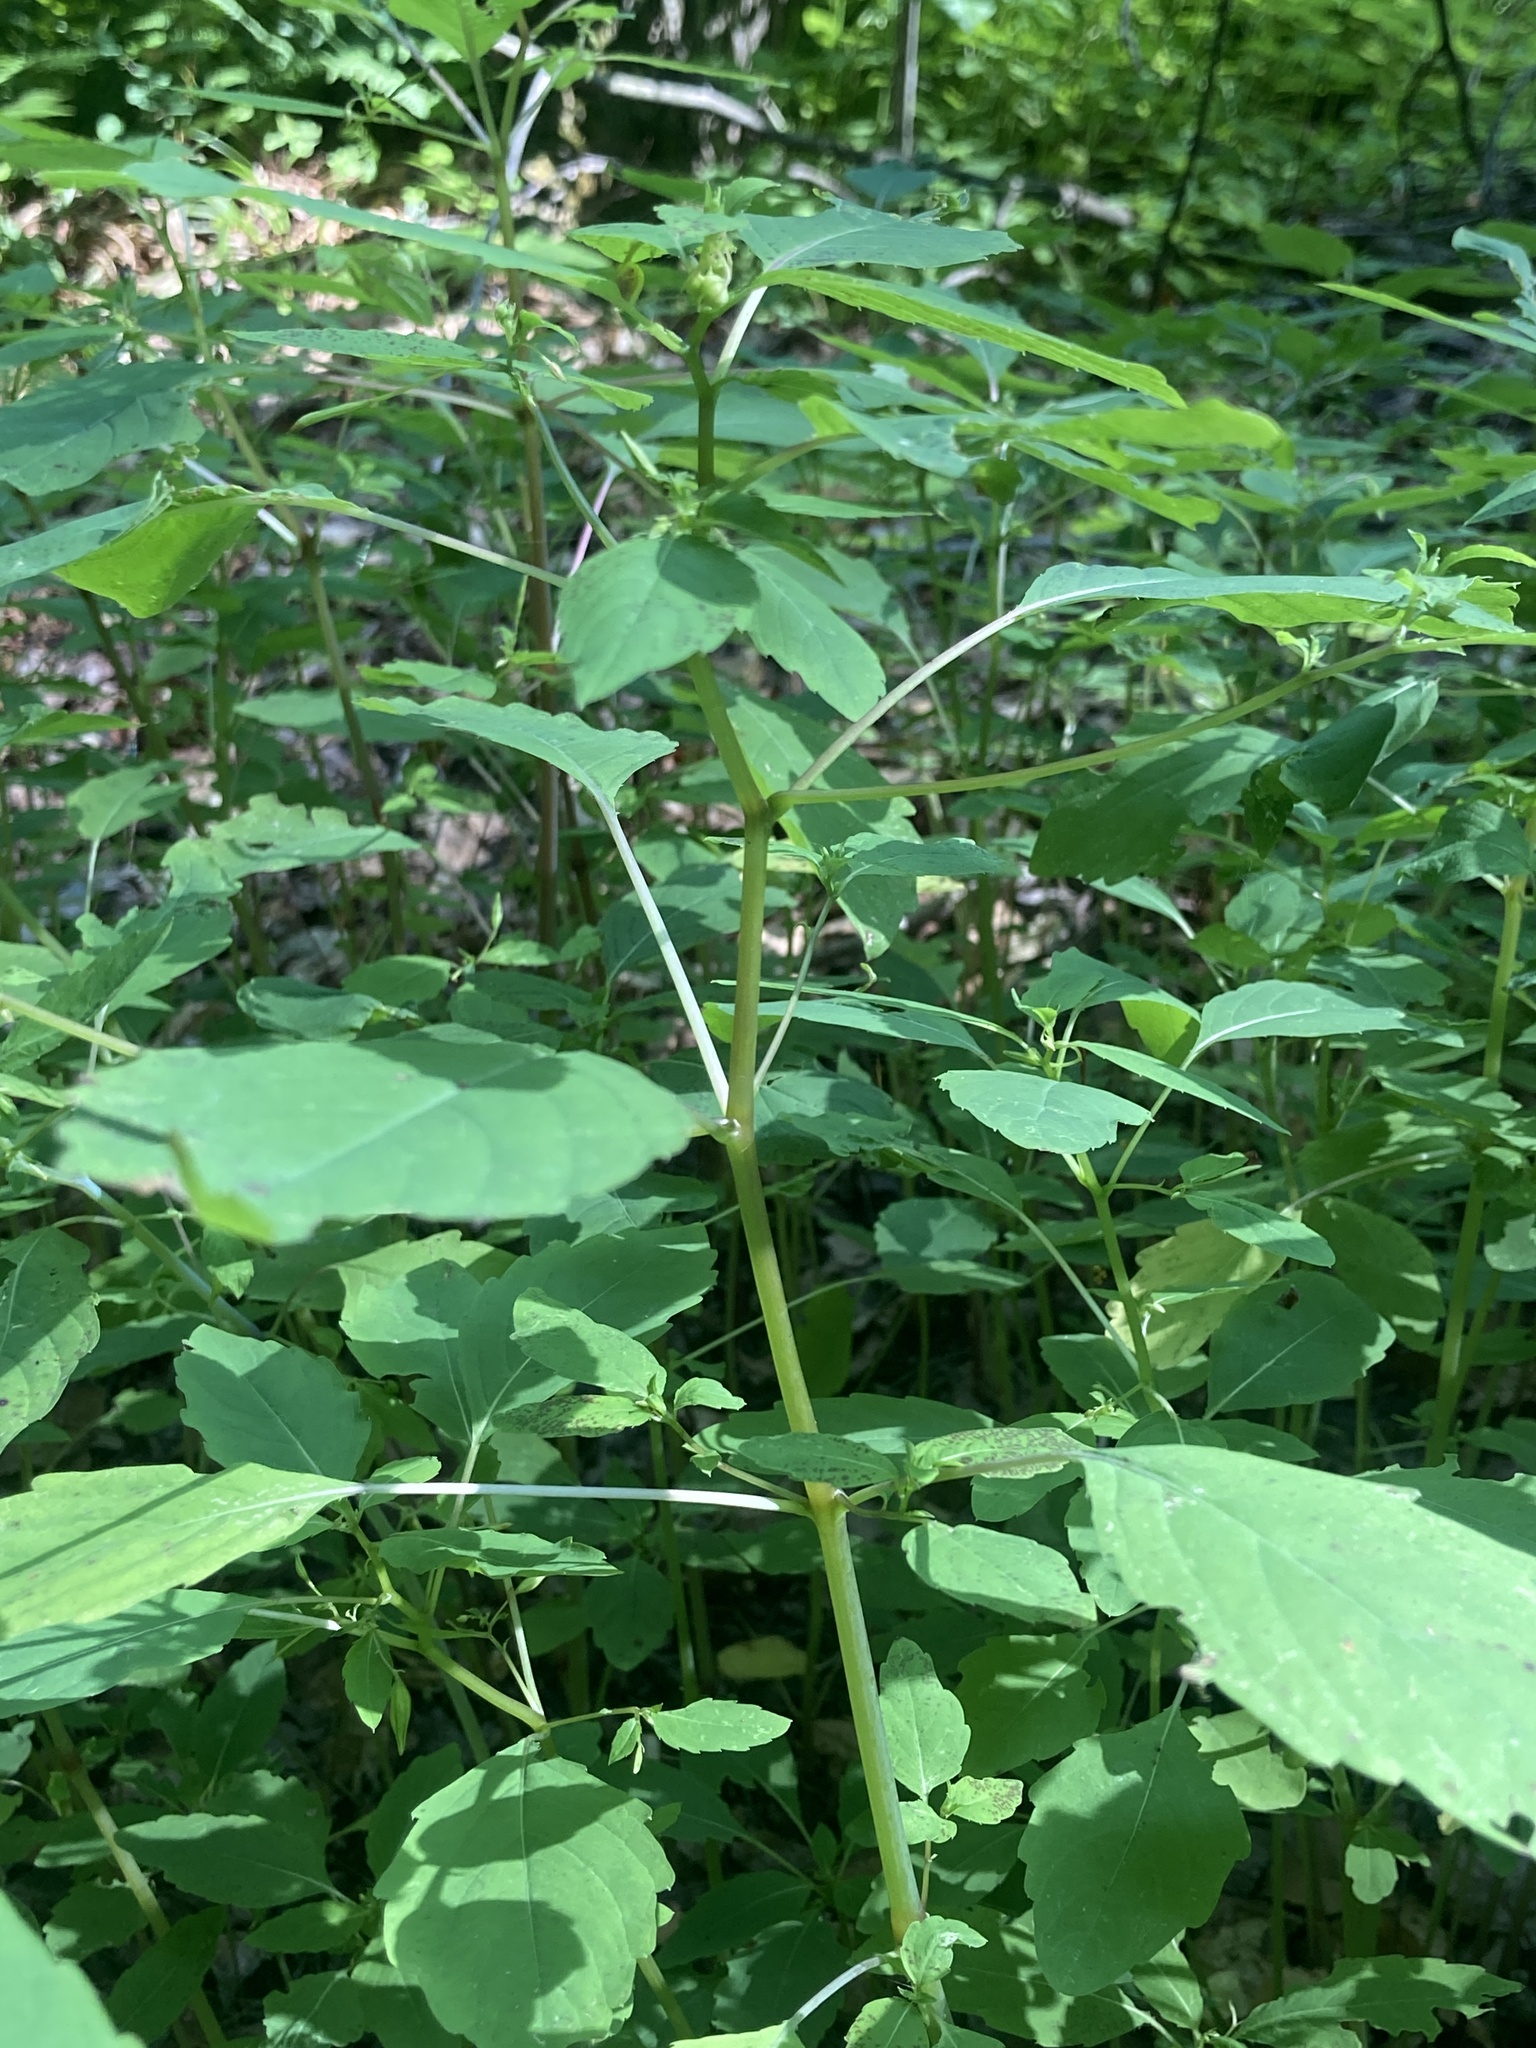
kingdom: Plantae
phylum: Tracheophyta
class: Magnoliopsida
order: Ericales
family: Balsaminaceae
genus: Impatiens
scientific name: Impatiens capensis
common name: Orange balsam
